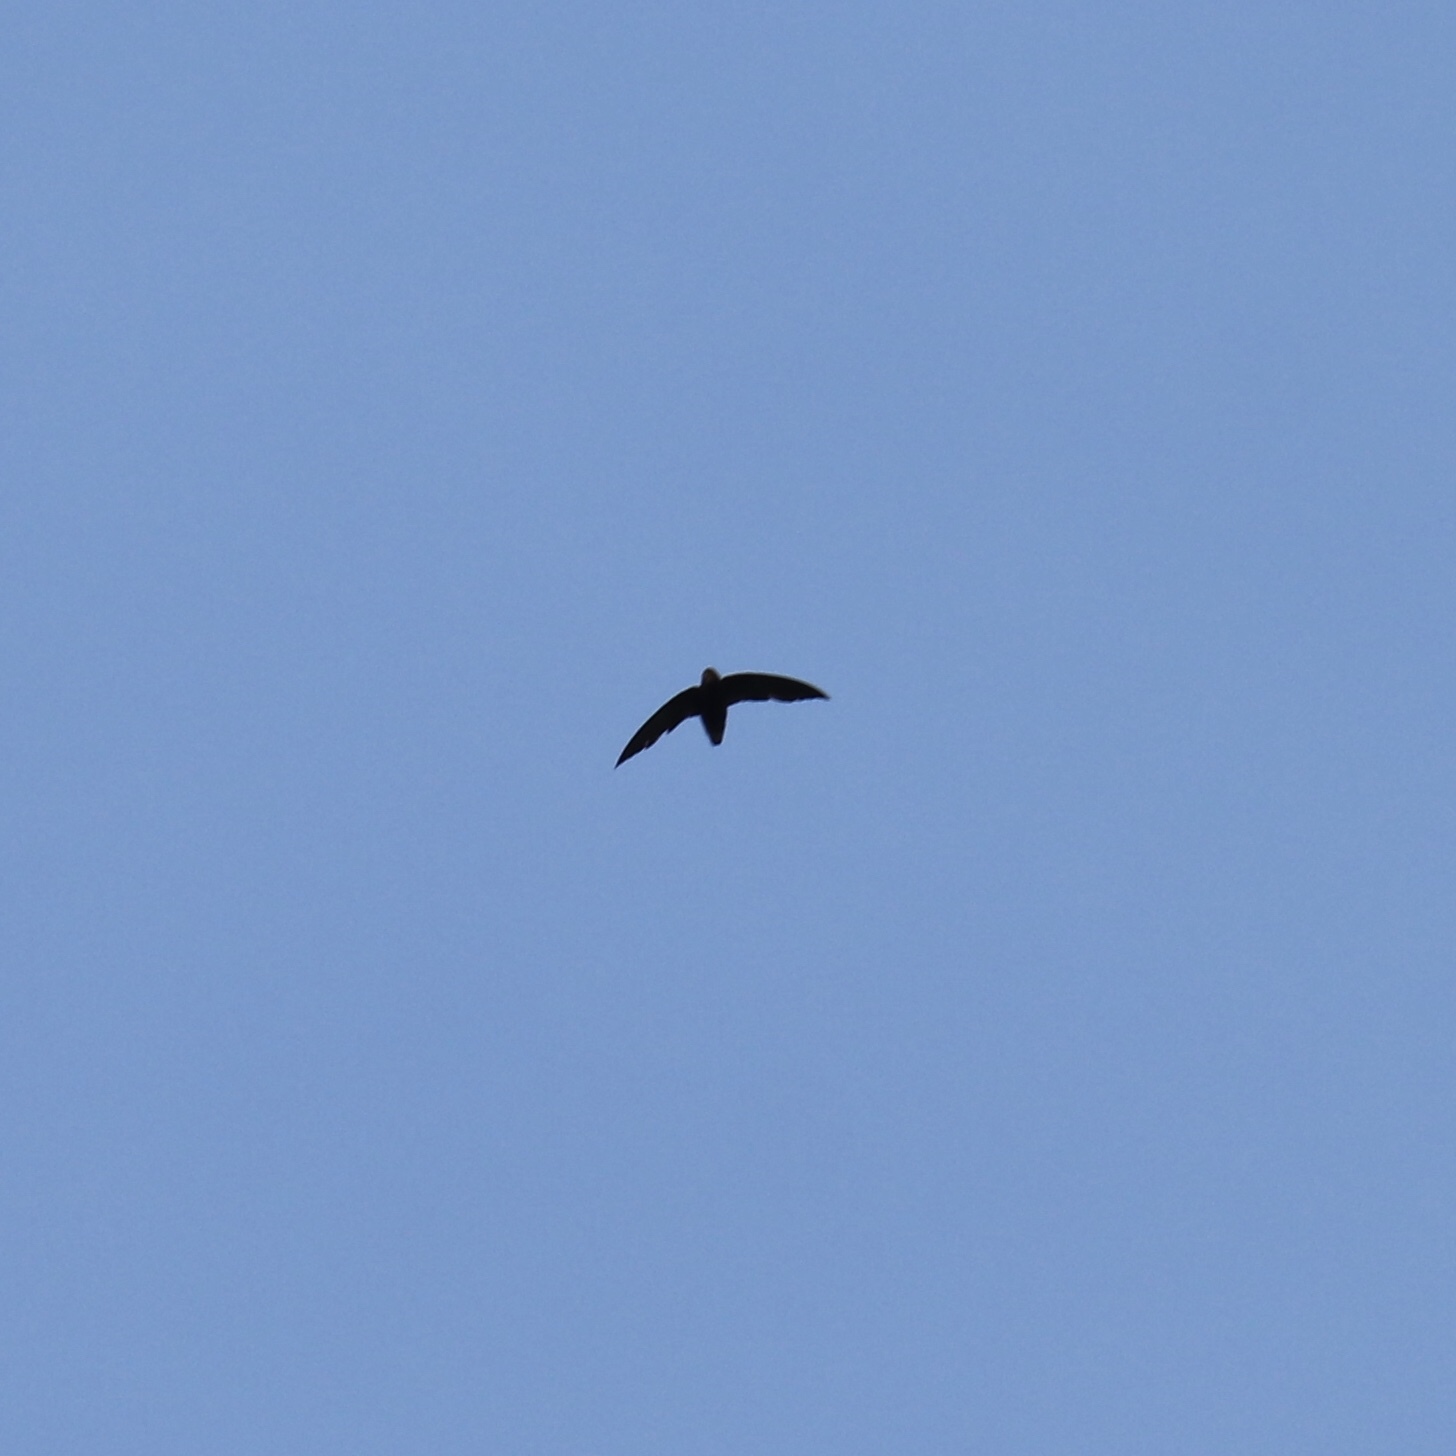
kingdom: Animalia
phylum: Chordata
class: Aves
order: Apodiformes
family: Apodidae
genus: Chaetura
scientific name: Chaetura brachyura
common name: Short-tailed swift
